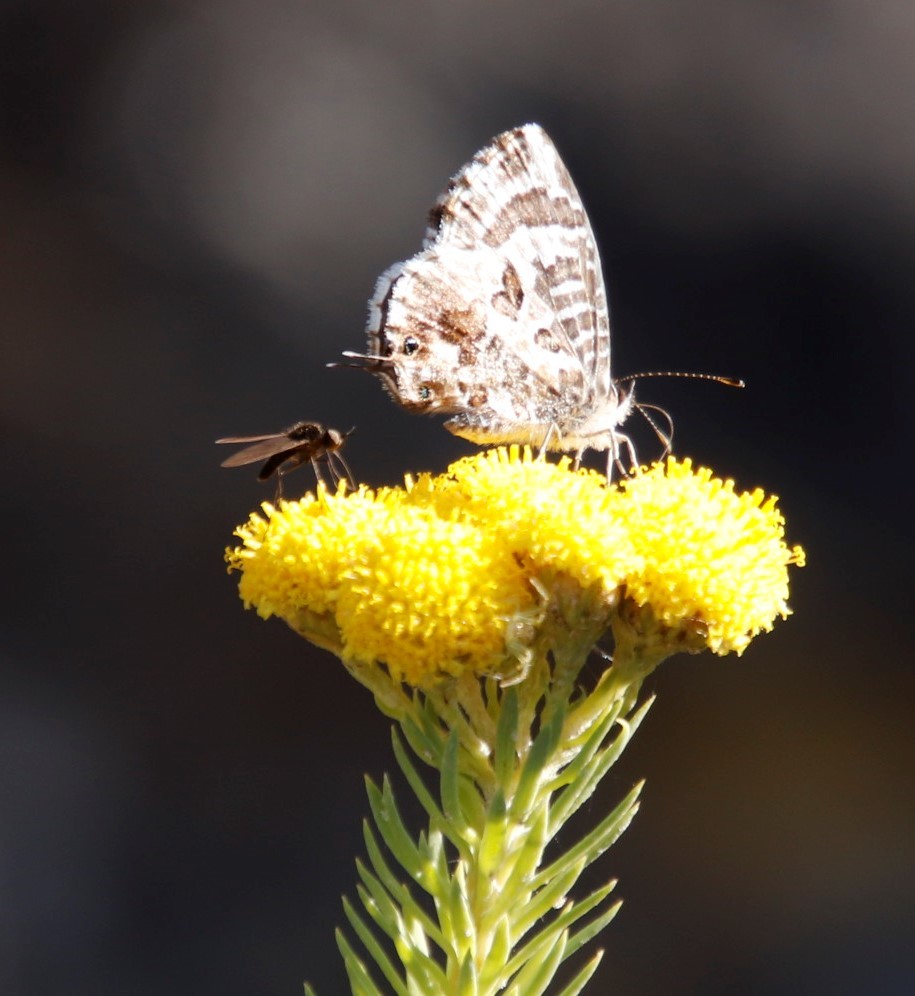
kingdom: Plantae
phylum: Tracheophyta
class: Magnoliopsida
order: Asterales
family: Asteraceae
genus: Phymaspermum
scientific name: Phymaspermum athanasioides
